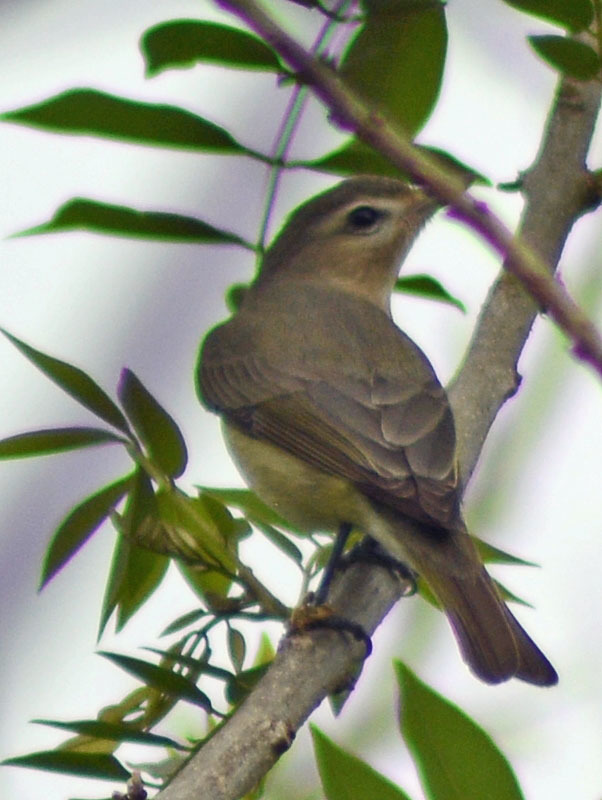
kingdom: Animalia
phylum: Chordata
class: Aves
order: Passeriformes
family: Vireonidae
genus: Vireo
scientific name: Vireo leucophrys
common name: Brown-capped vireo
